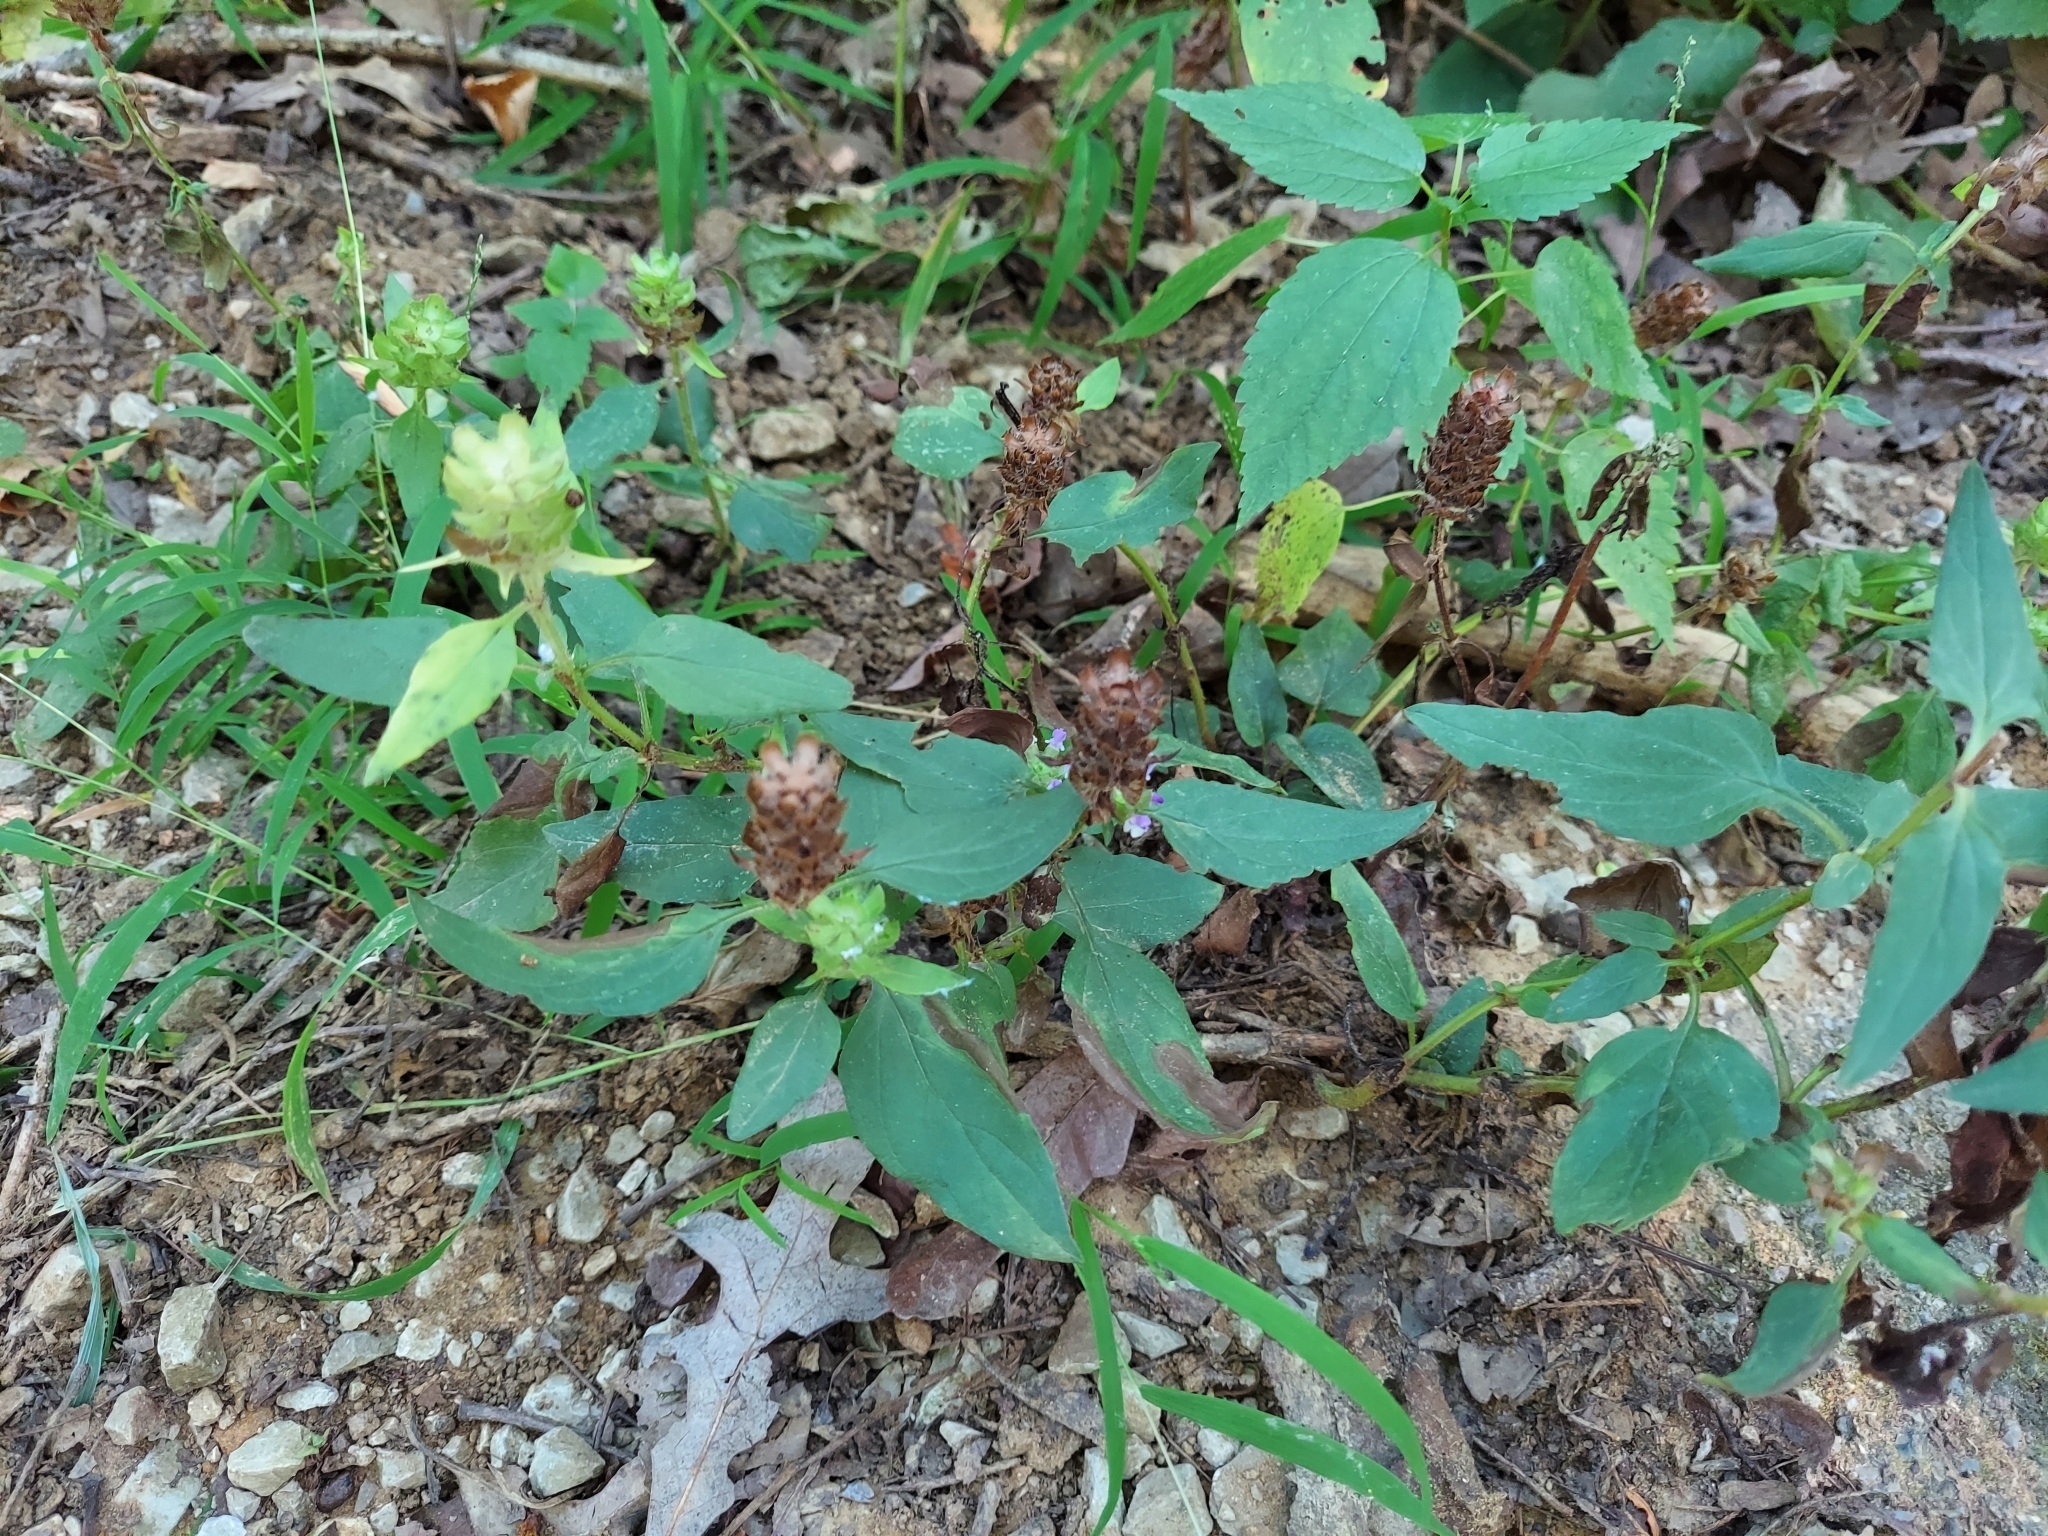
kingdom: Plantae
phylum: Tracheophyta
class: Magnoliopsida
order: Lamiales
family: Lamiaceae
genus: Prunella
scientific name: Prunella vulgaris
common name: Heal-all
